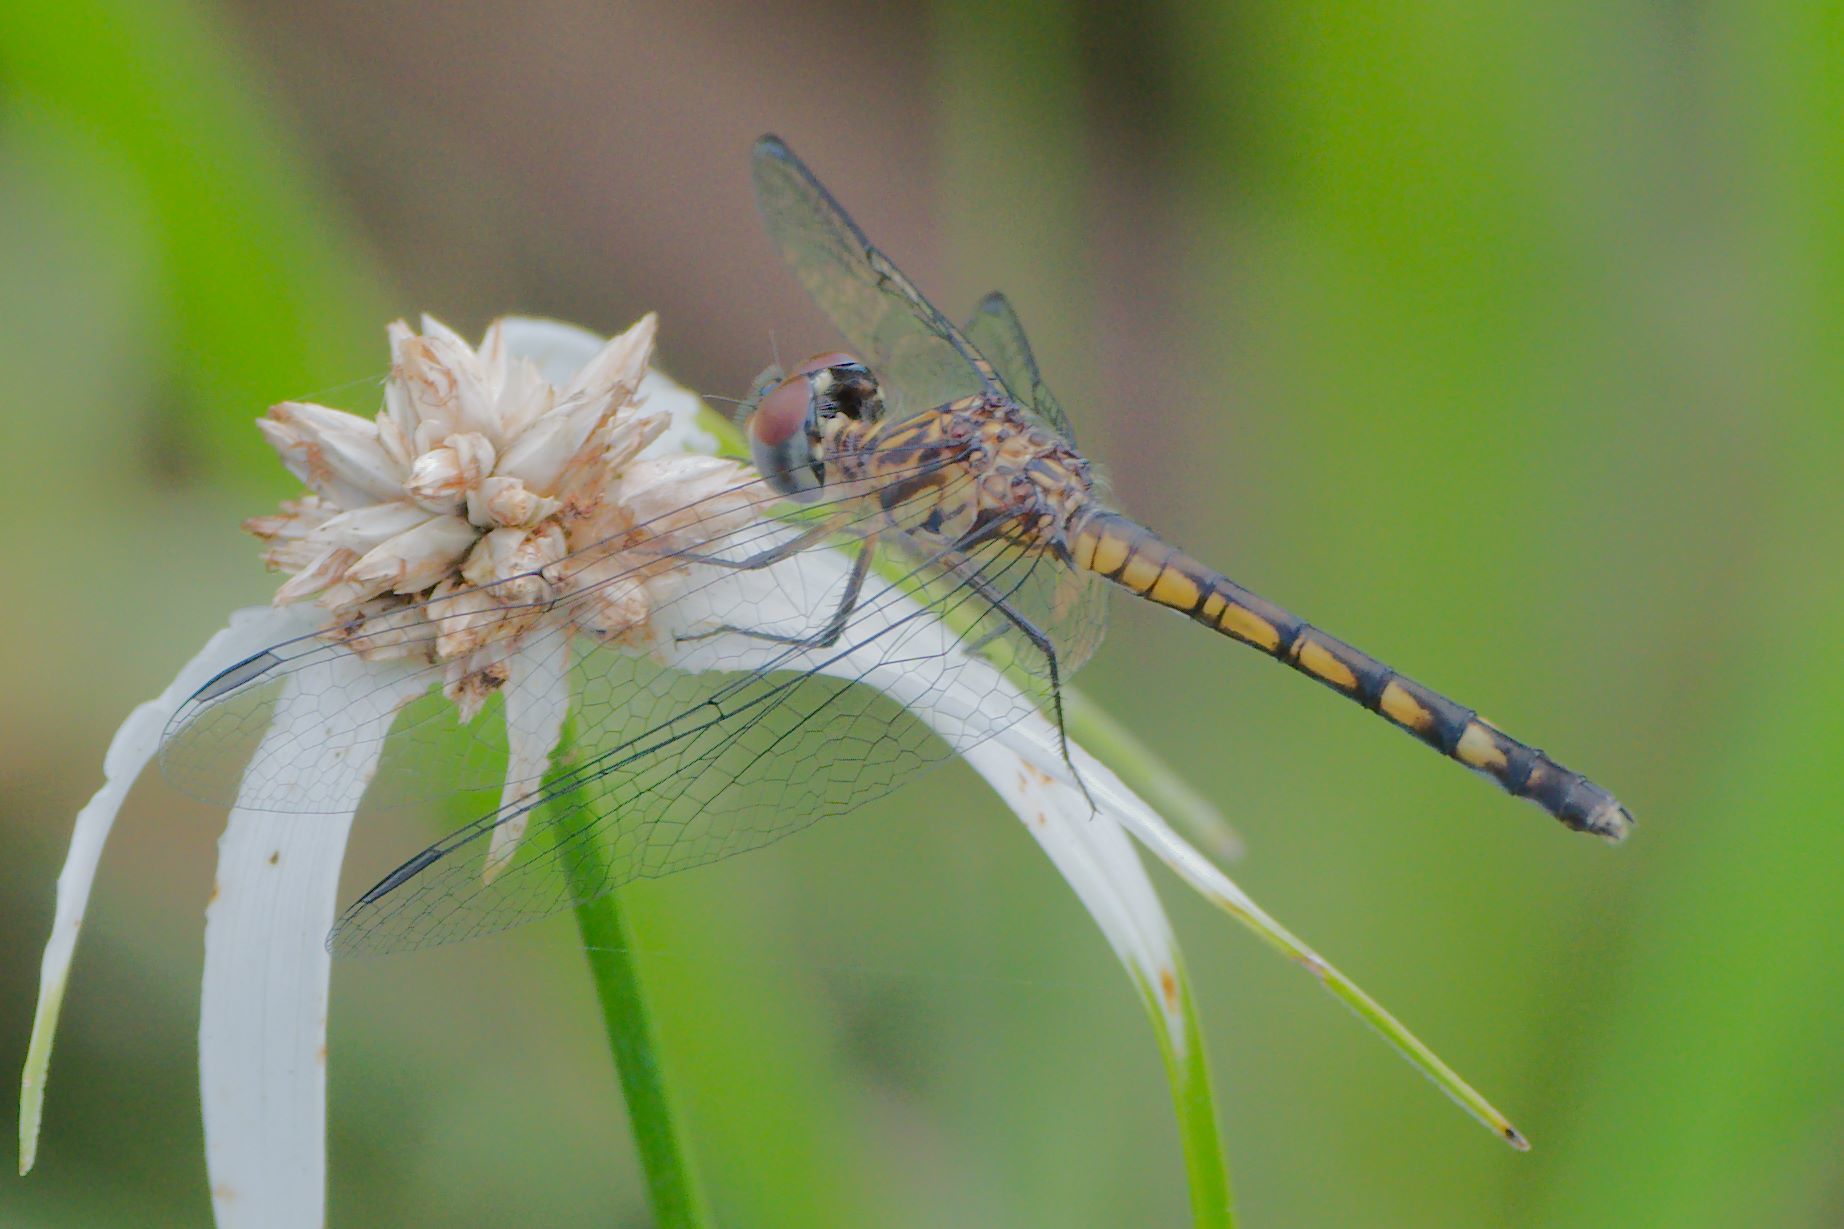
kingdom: Animalia
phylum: Arthropoda
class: Insecta
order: Odonata
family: Libellulidae
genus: Micrathyria
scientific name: Micrathyria aequalis
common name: Spot-tailed dasher
